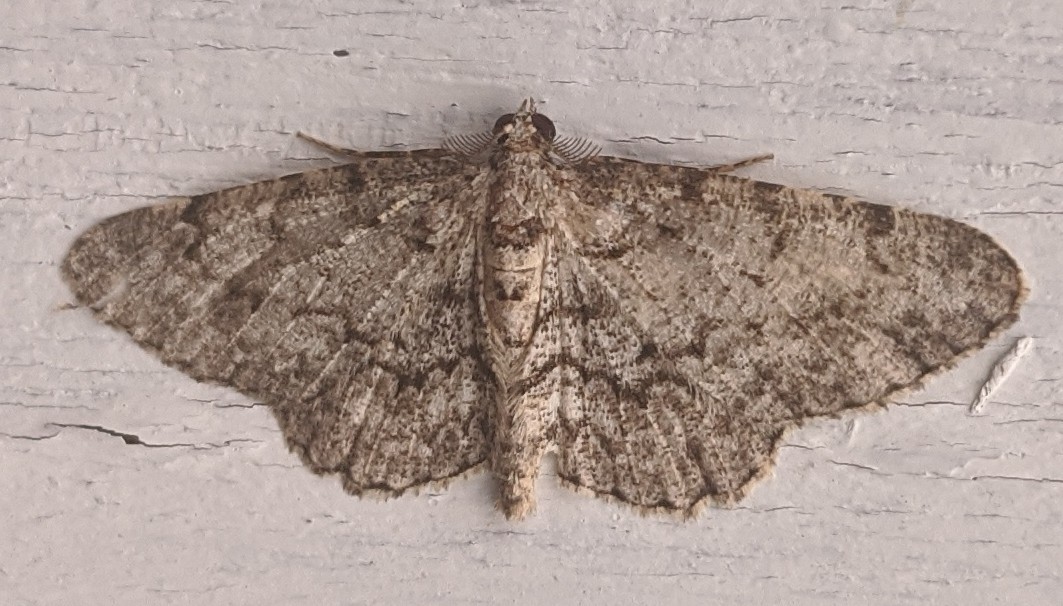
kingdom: Animalia
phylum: Arthropoda
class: Insecta
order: Lepidoptera
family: Geometridae
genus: Protoboarmia
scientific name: Protoboarmia porcelaria
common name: Porcelain gray
